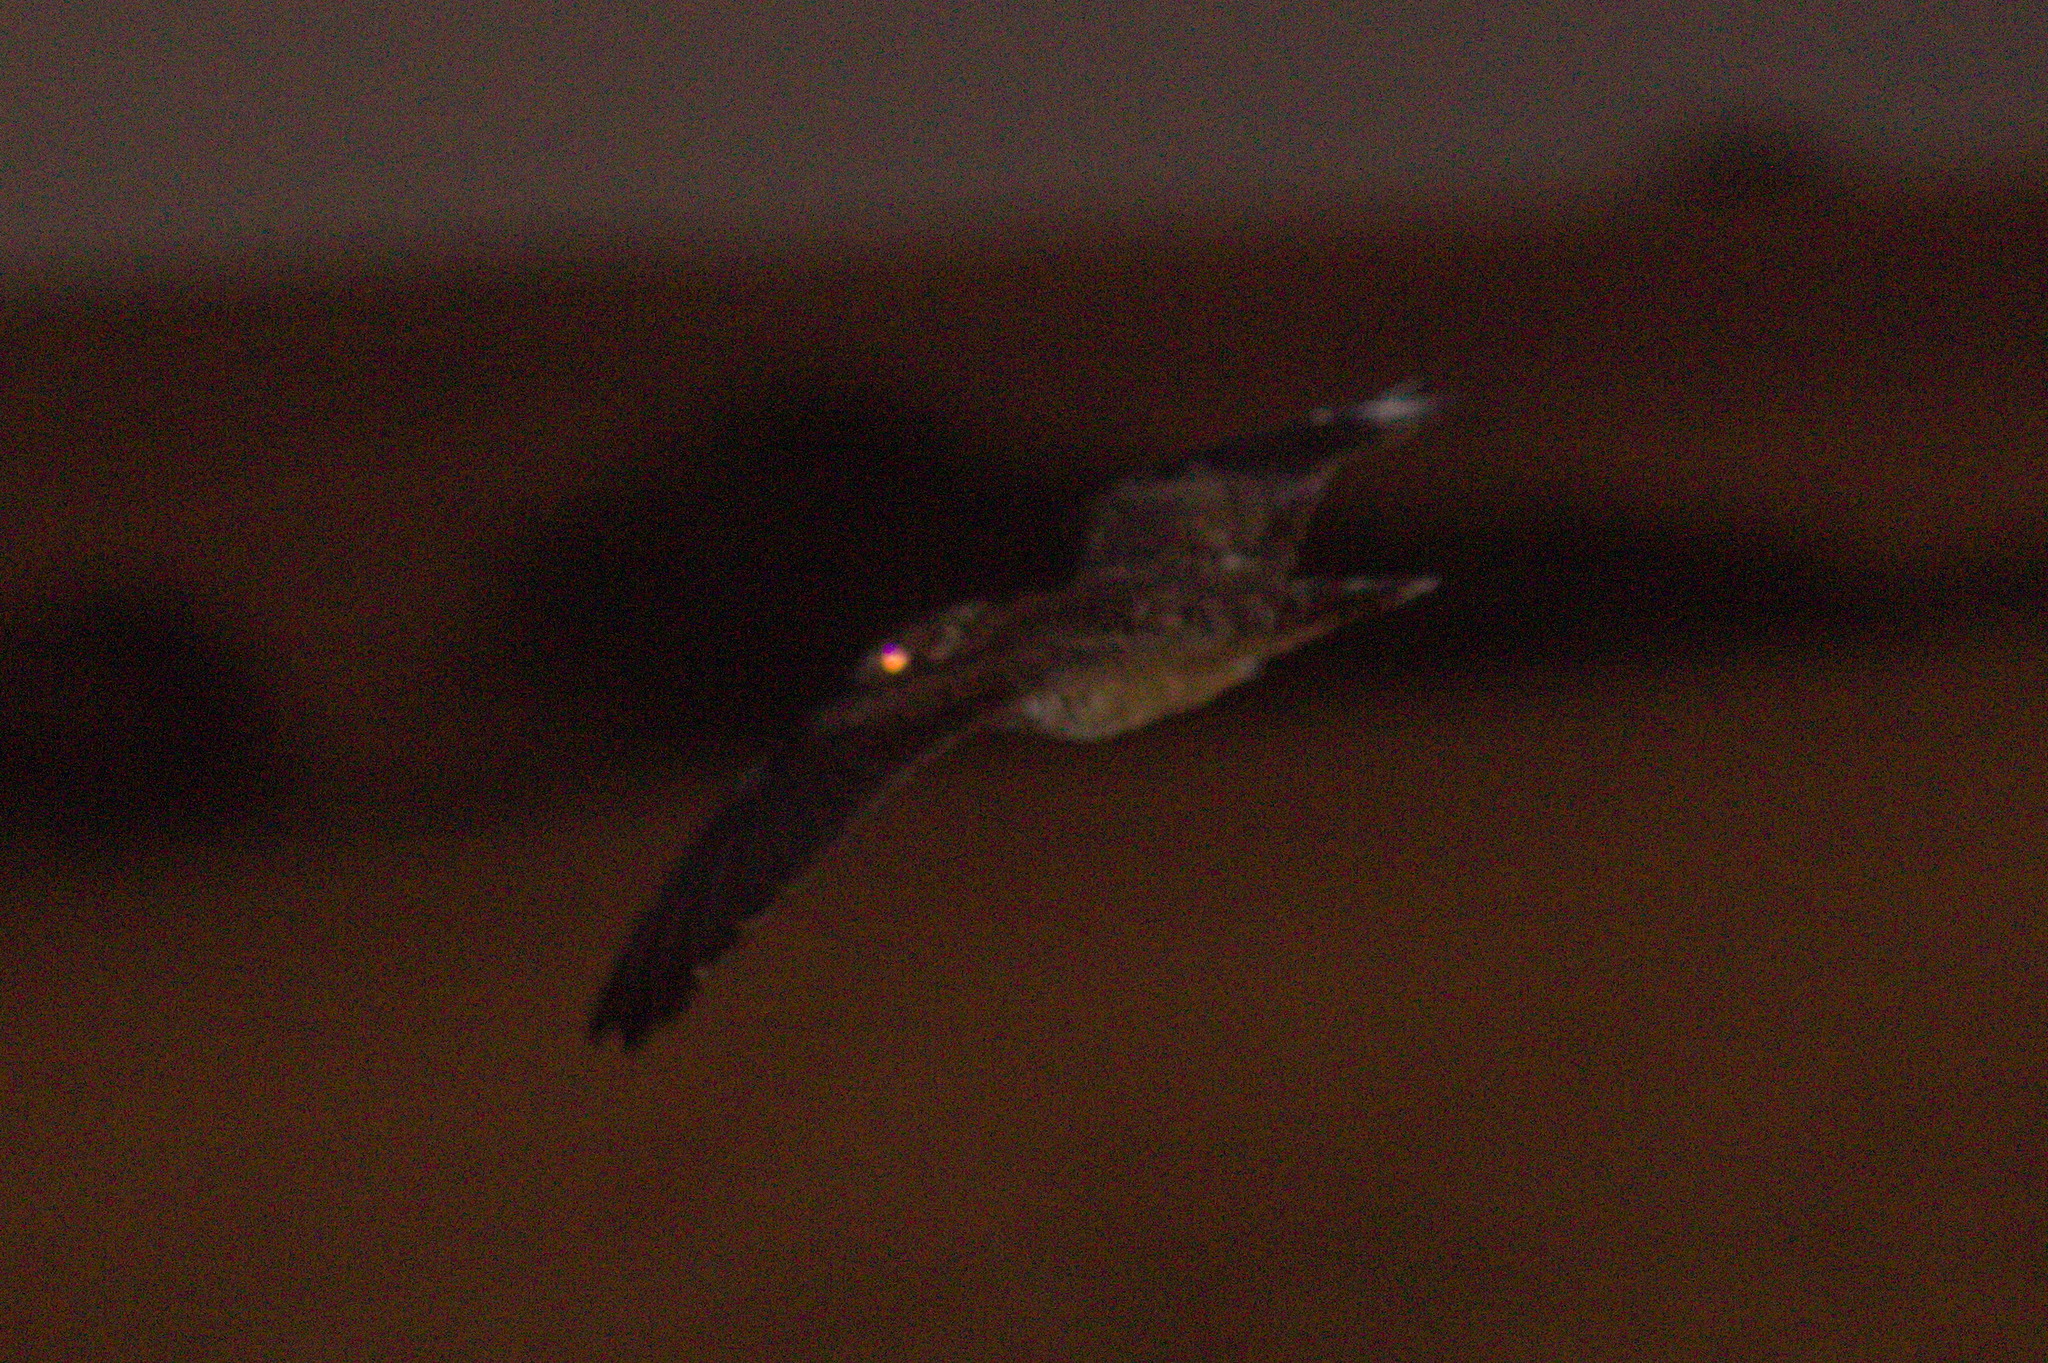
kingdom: Animalia
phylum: Chordata
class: Aves
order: Caprimulgiformes
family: Caprimulgidae
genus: Lurocalis
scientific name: Lurocalis semitorquatus
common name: Short-tailed nighthawk
